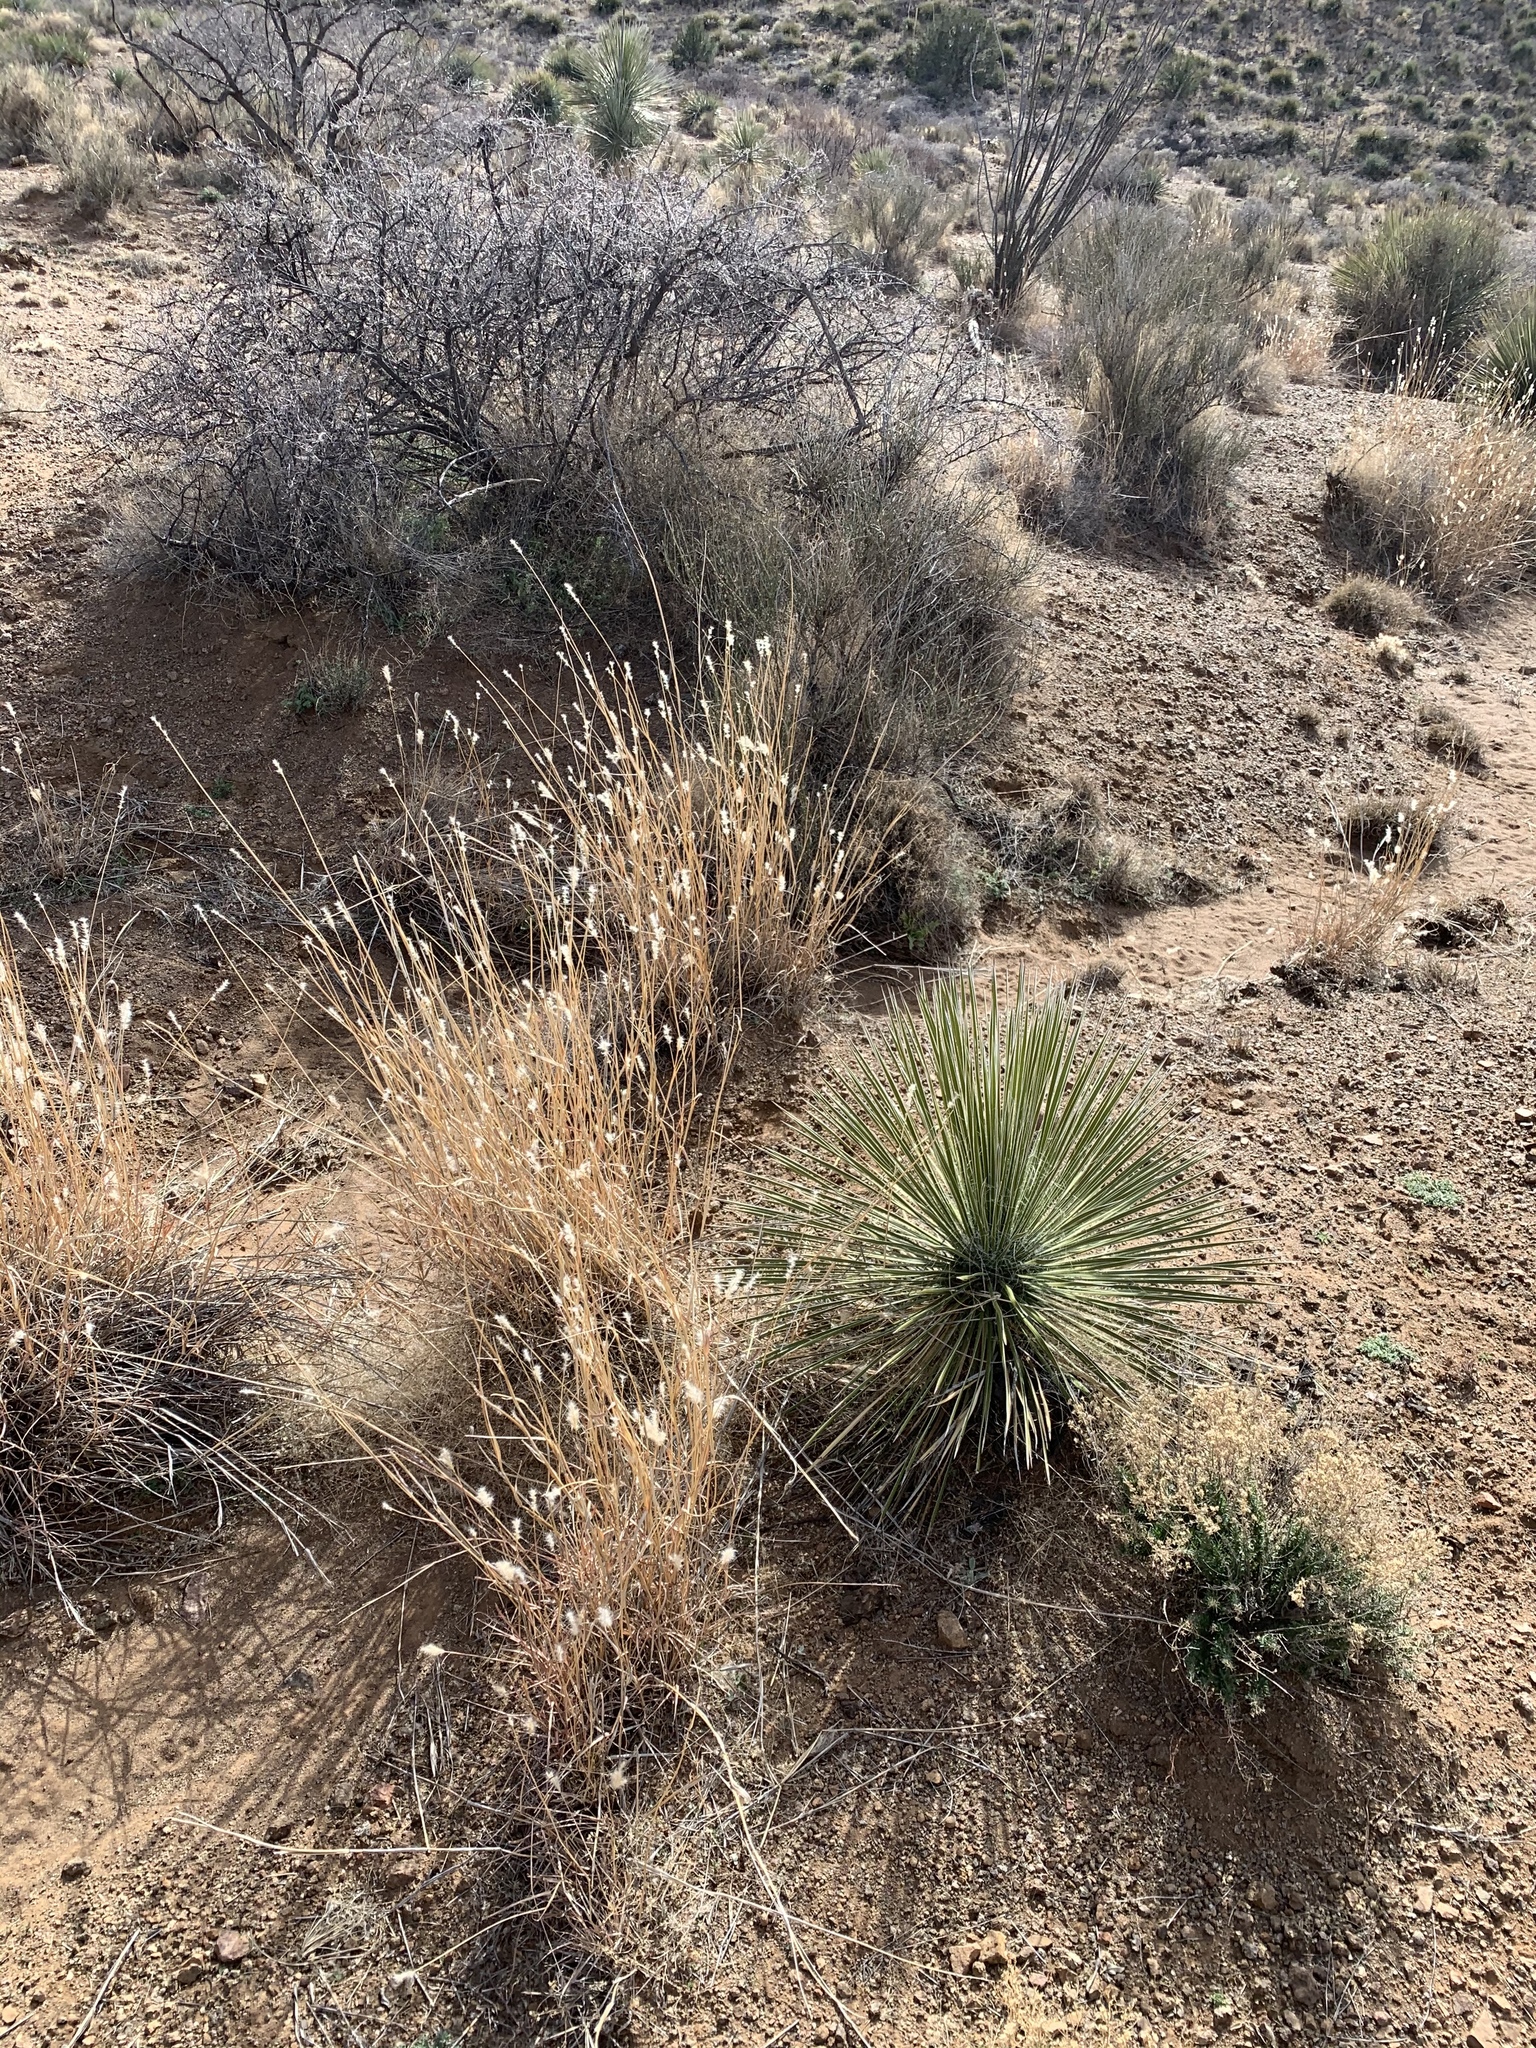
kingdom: Plantae
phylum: Tracheophyta
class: Liliopsida
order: Poales
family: Poaceae
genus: Bothriochloa
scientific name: Bothriochloa barbinodis
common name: Cane bluestem
